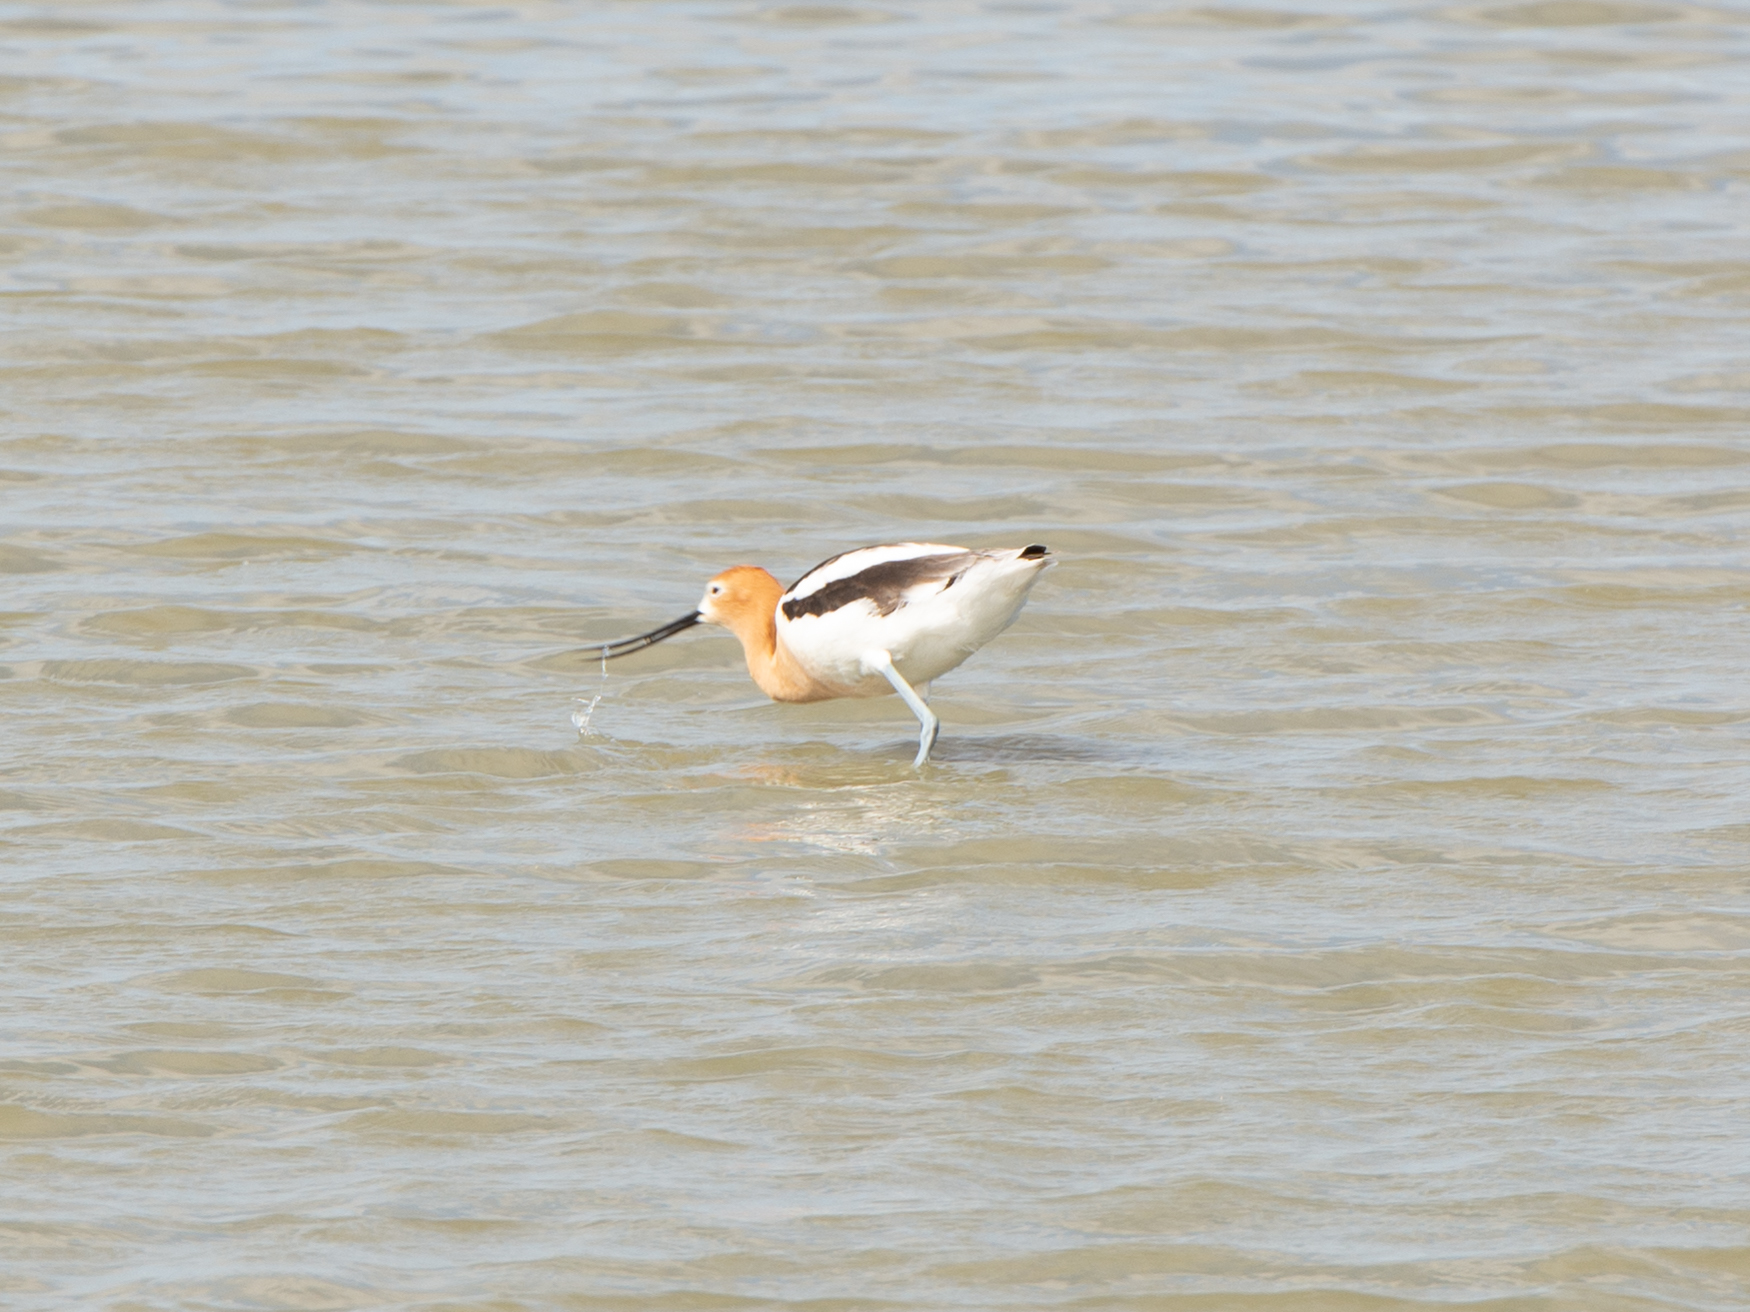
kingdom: Animalia
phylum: Chordata
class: Aves
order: Charadriiformes
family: Recurvirostridae
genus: Recurvirostra
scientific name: Recurvirostra americana
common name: American avocet
